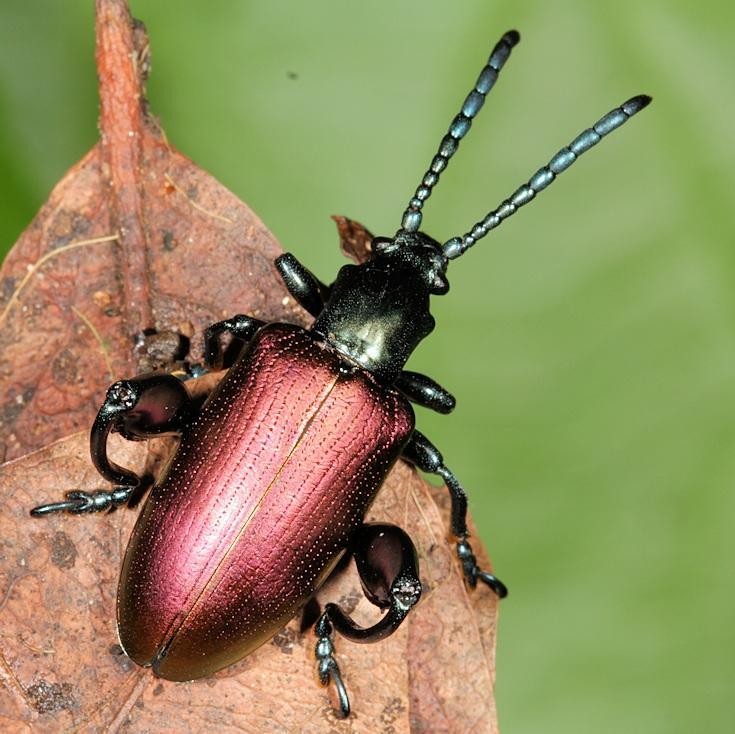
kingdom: Animalia
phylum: Arthropoda
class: Insecta
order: Coleoptera
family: Chrysomelidae
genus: Sagra
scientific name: Sagra
